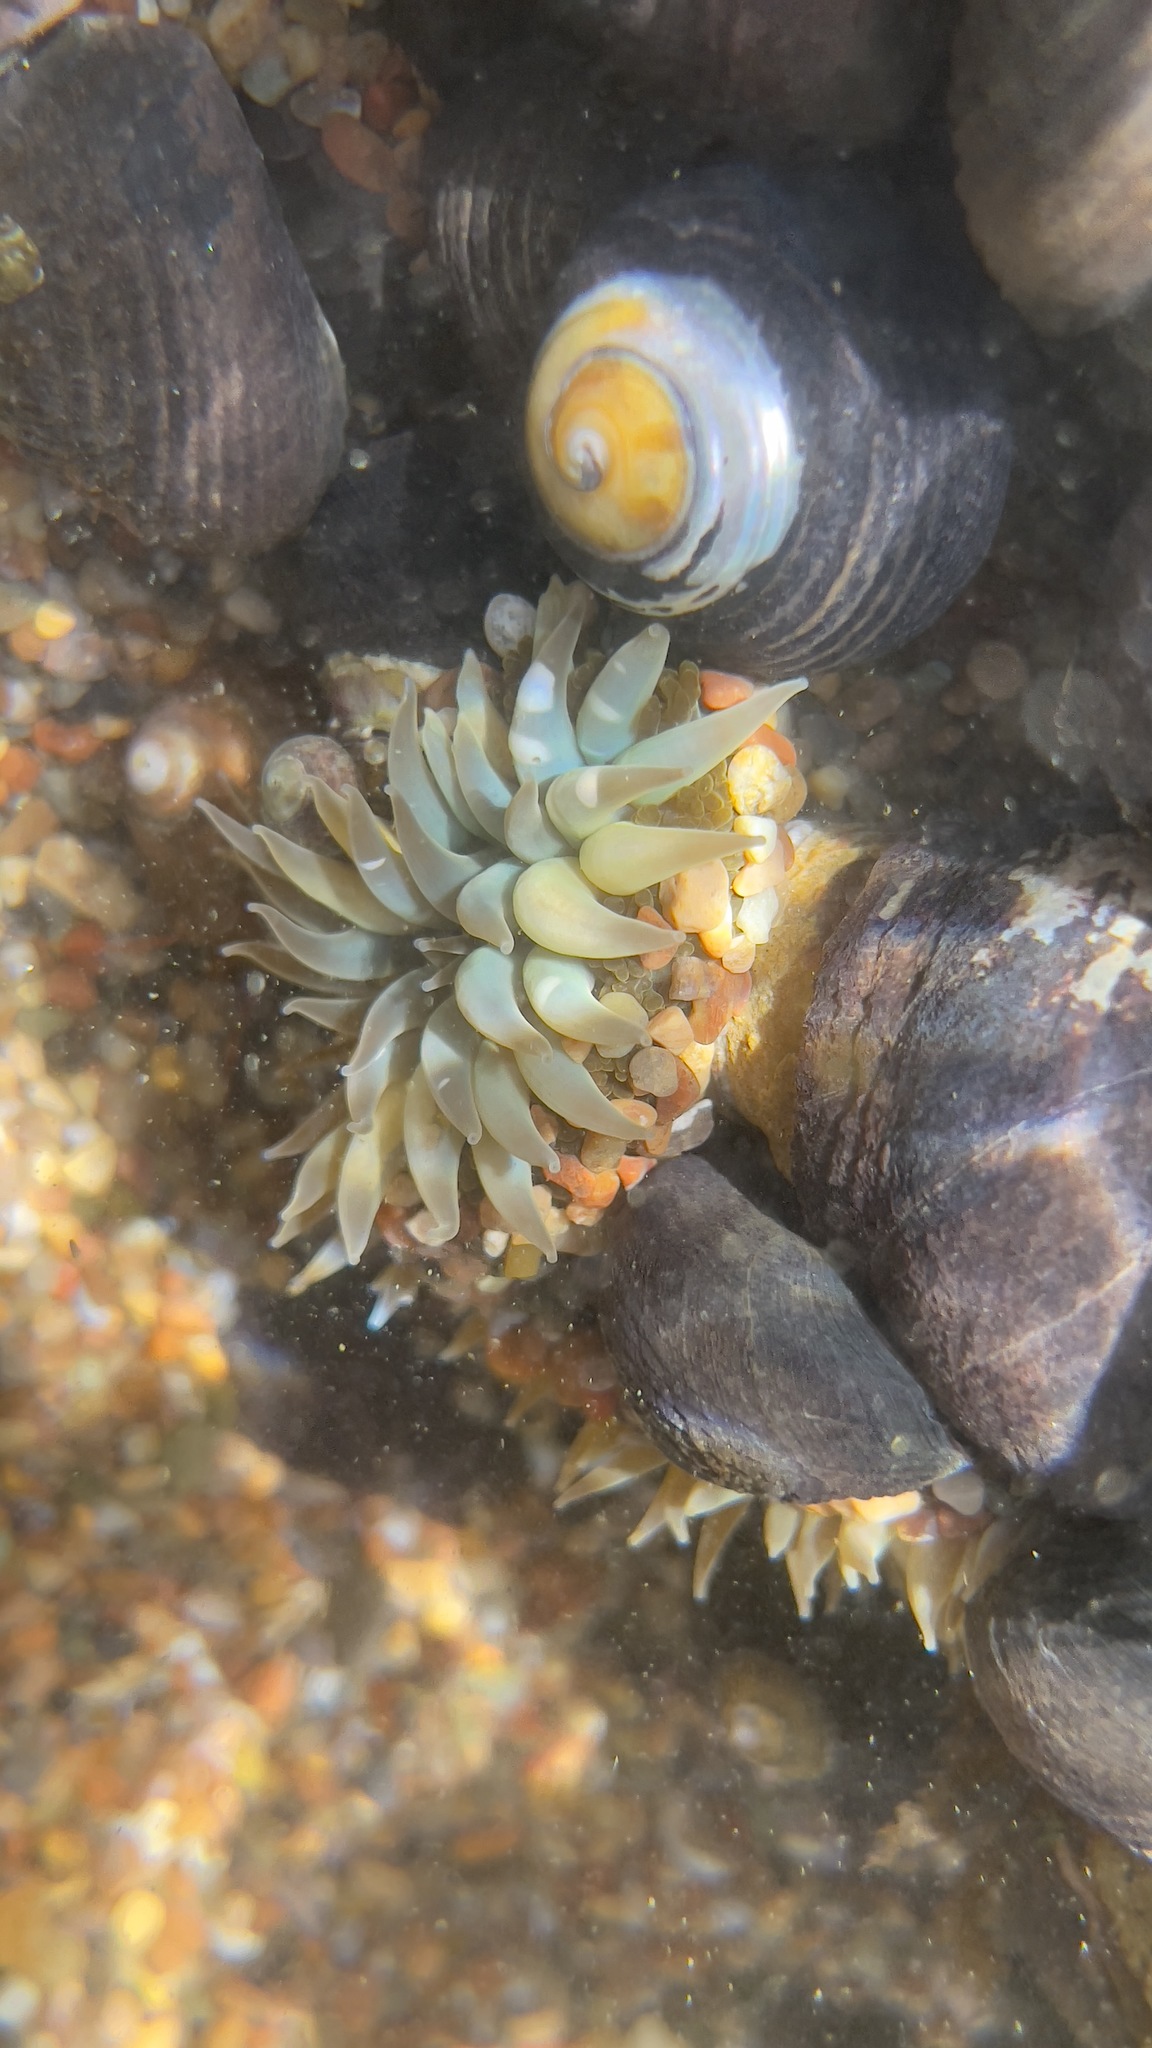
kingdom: Animalia
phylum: Mollusca
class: Gastropoda
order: Trochida
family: Tegulidae
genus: Tegula
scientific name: Tegula funebralis
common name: Black tegula
